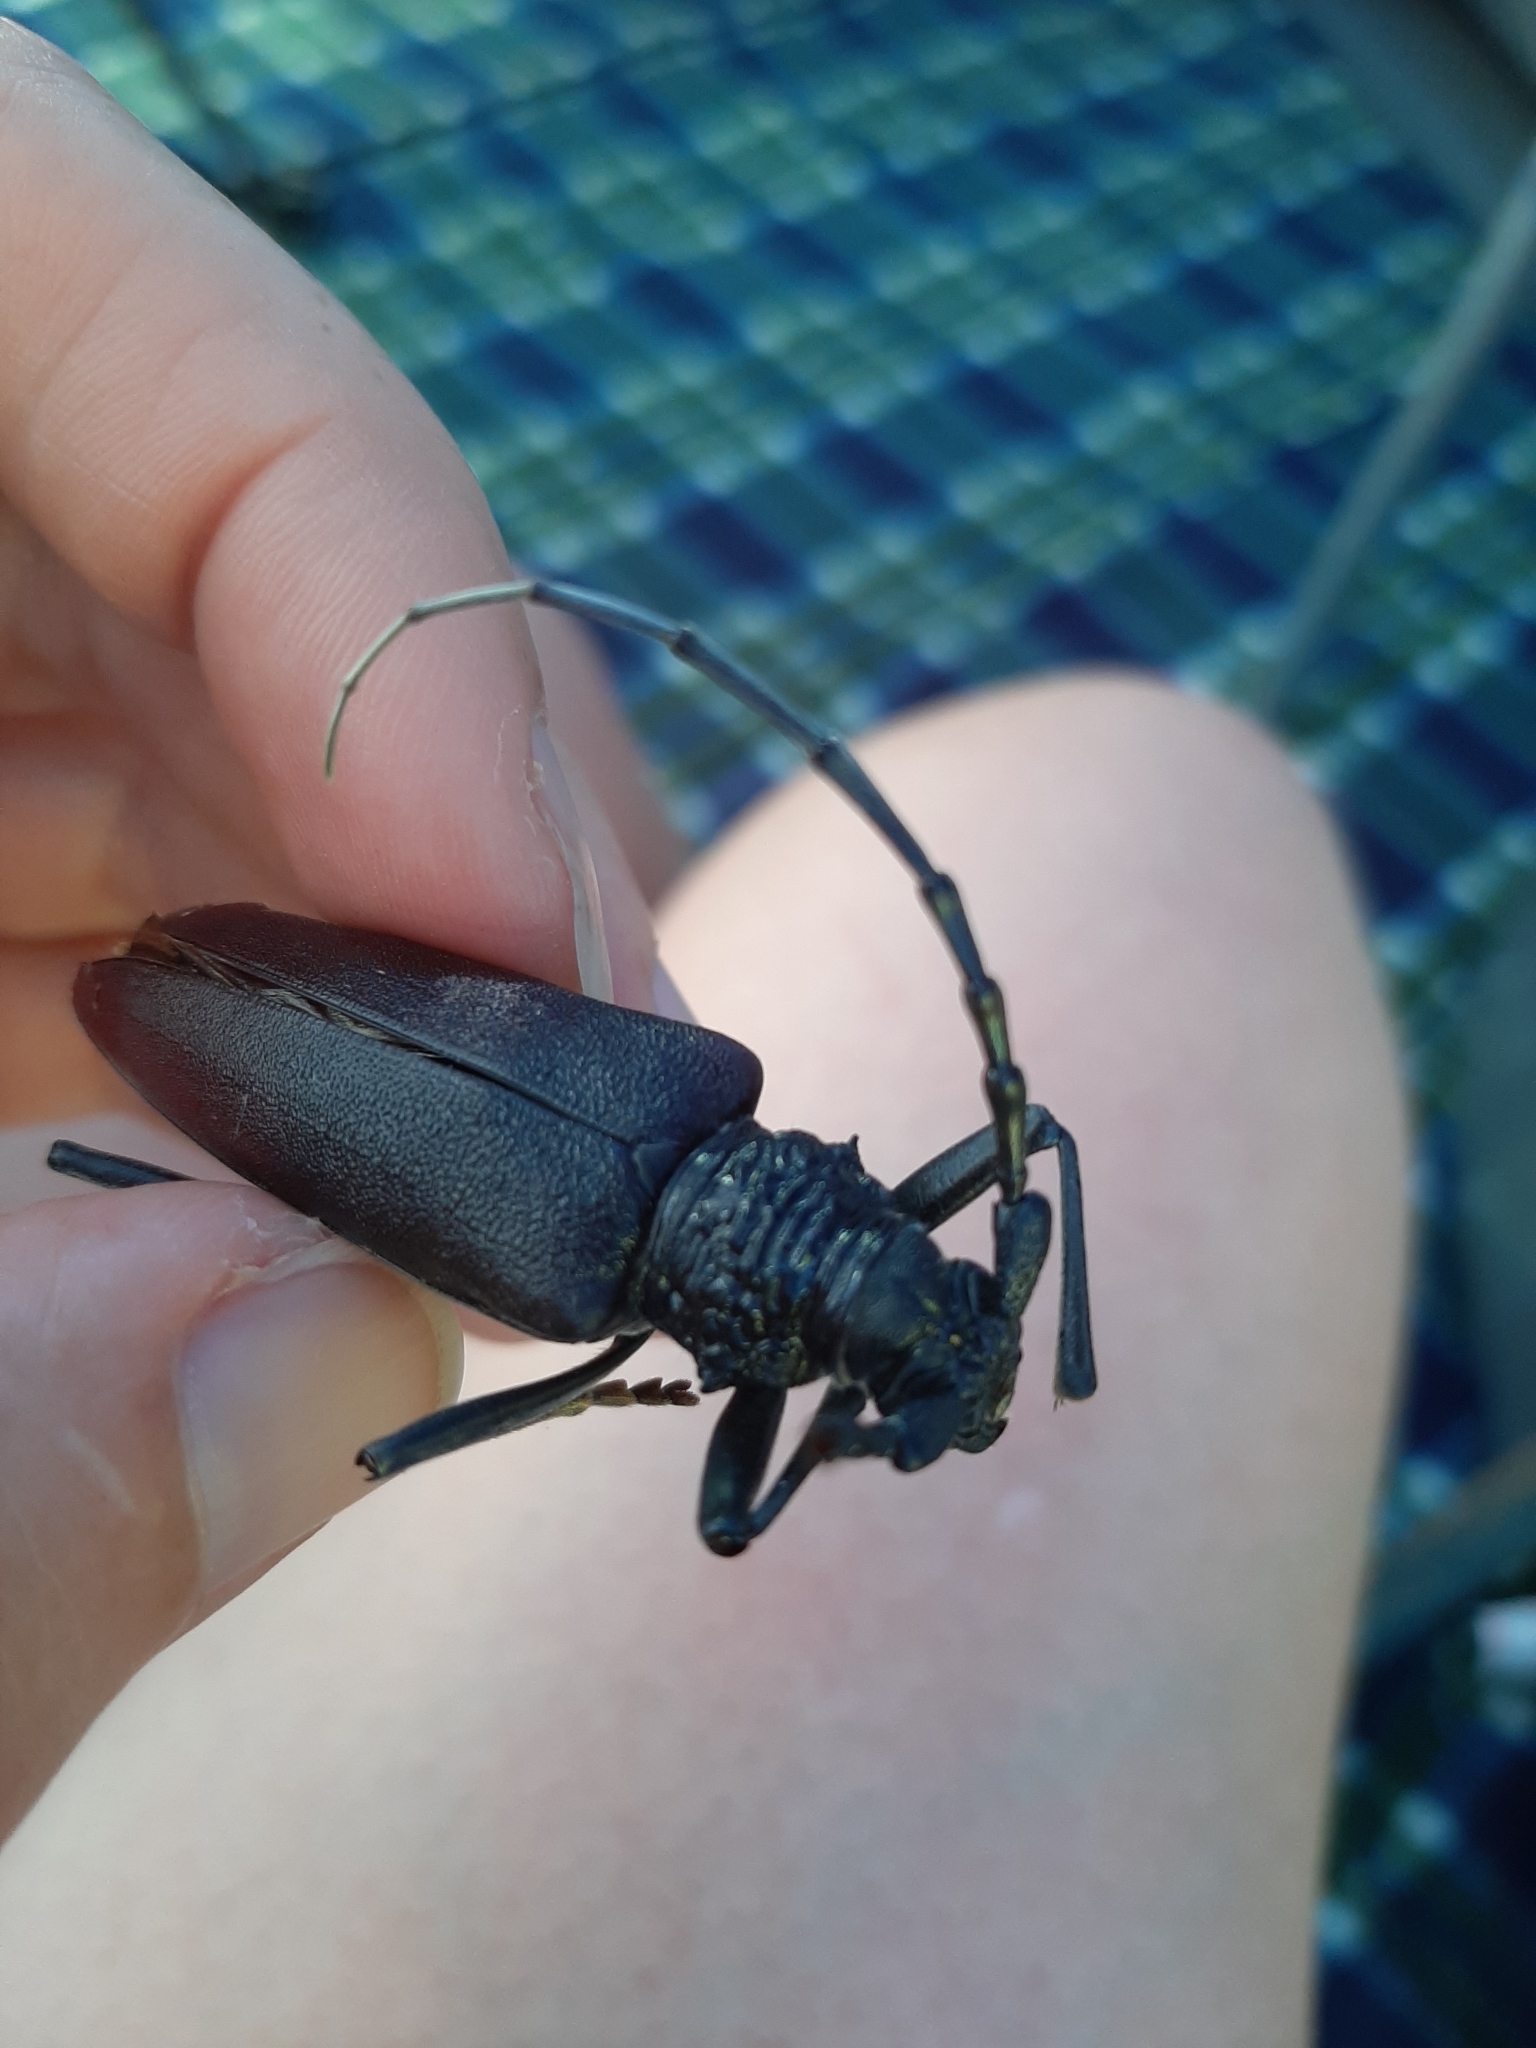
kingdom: Animalia
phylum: Arthropoda
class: Insecta
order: Coleoptera
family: Cerambycidae
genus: Cerambyx
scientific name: Cerambyx cerdo
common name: Cerambyx longicorn
